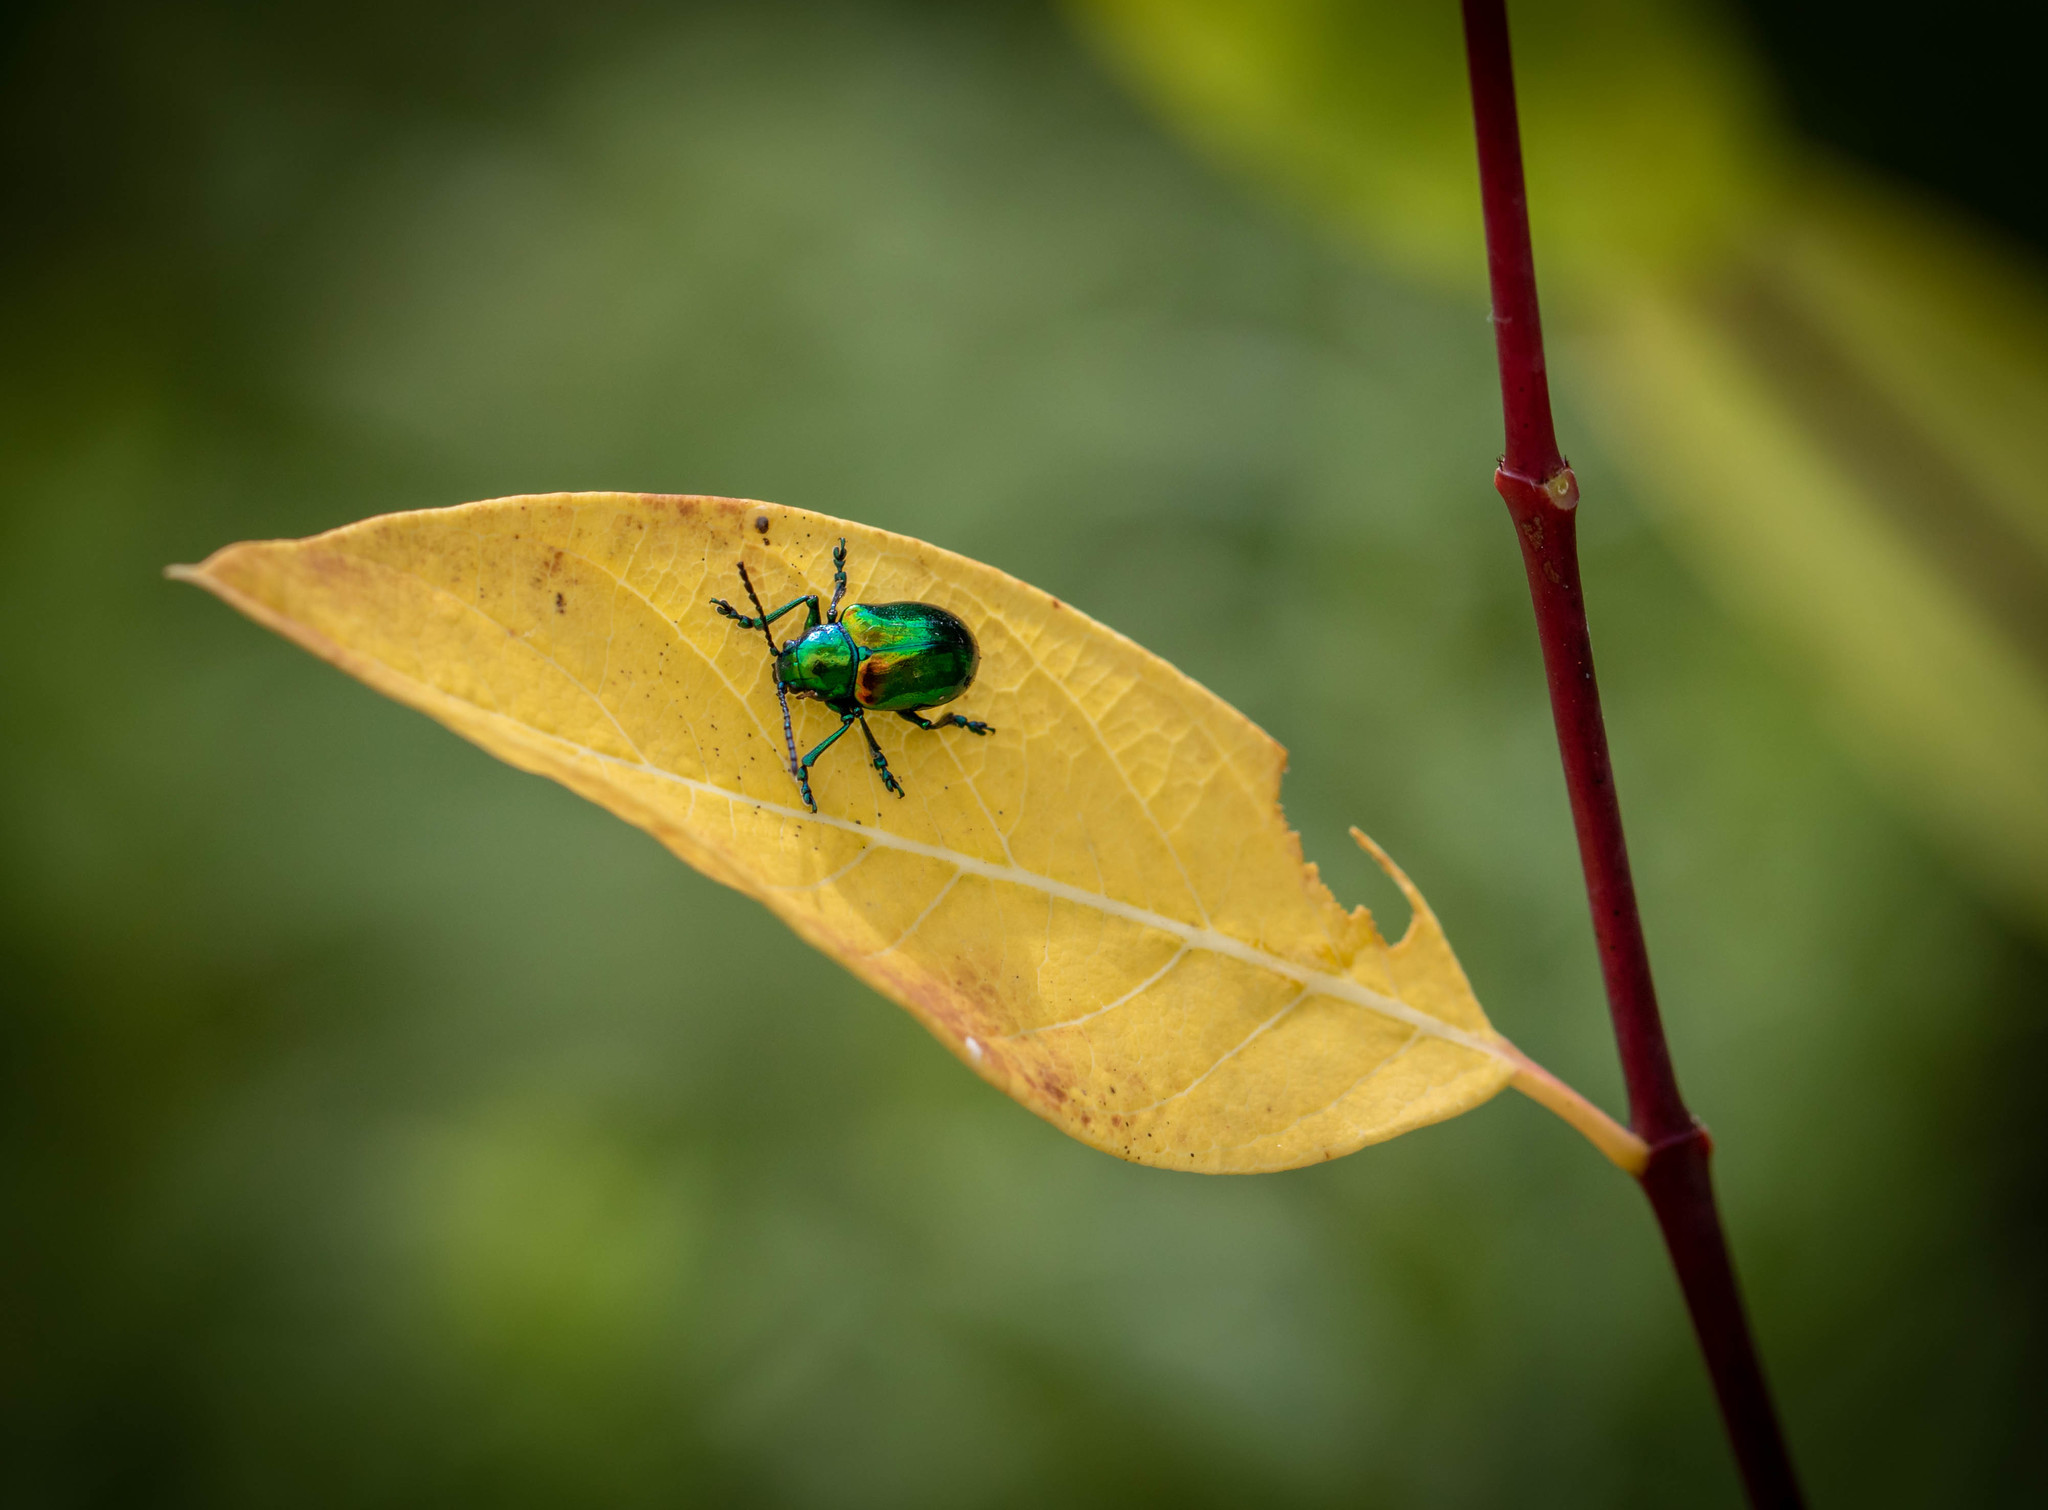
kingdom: Animalia
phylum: Arthropoda
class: Insecta
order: Coleoptera
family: Chrysomelidae
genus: Chrysochus
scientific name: Chrysochus auratus
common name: Dogbane leaf beetle
